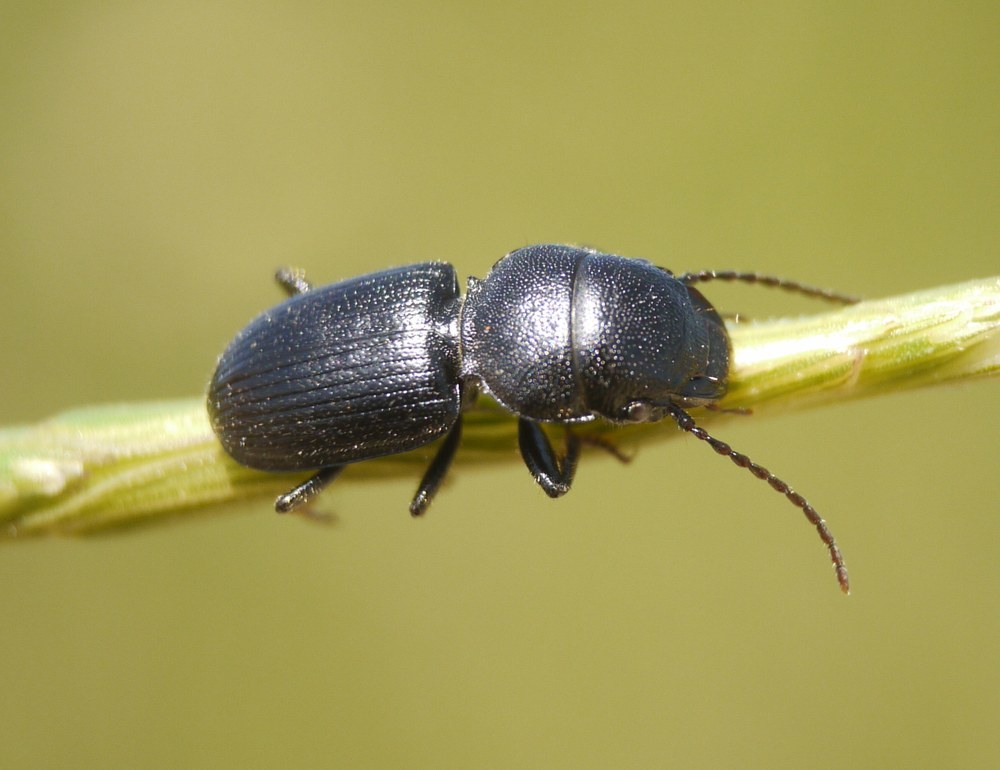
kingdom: Animalia
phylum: Arthropoda
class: Insecta
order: Coleoptera
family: Carabidae
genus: Dixus
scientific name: Dixus obscurus
